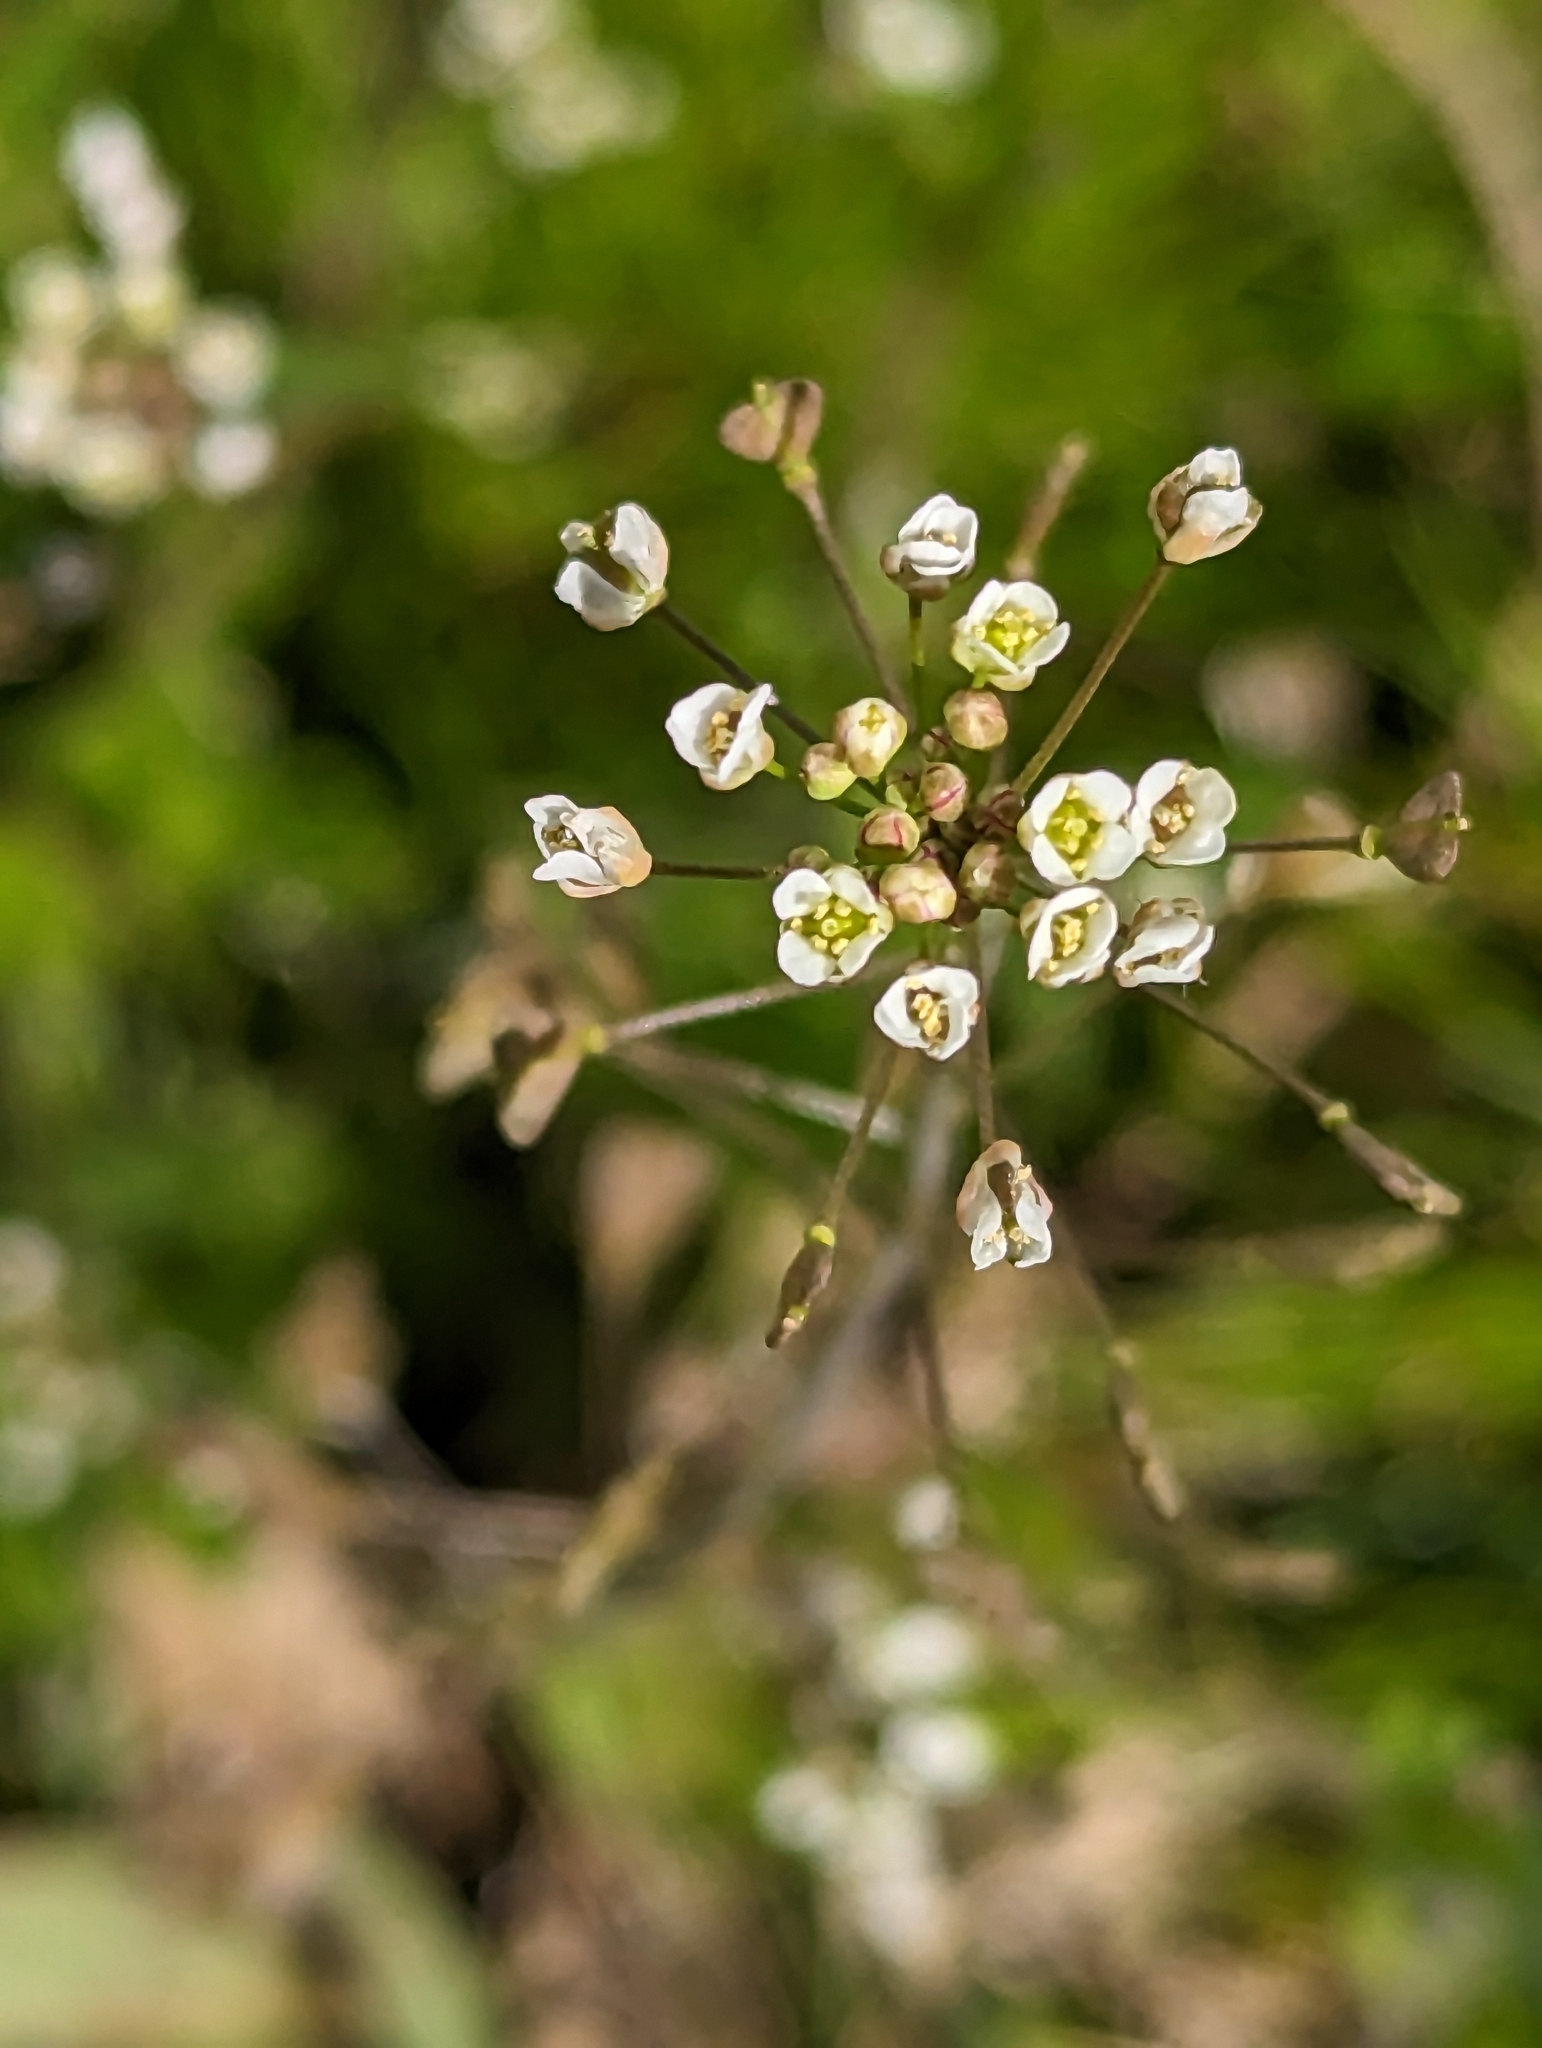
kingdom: Plantae
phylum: Tracheophyta
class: Magnoliopsida
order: Brassicales
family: Brassicaceae
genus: Capsella
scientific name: Capsella bursa-pastoris
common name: Shepherd's purse
